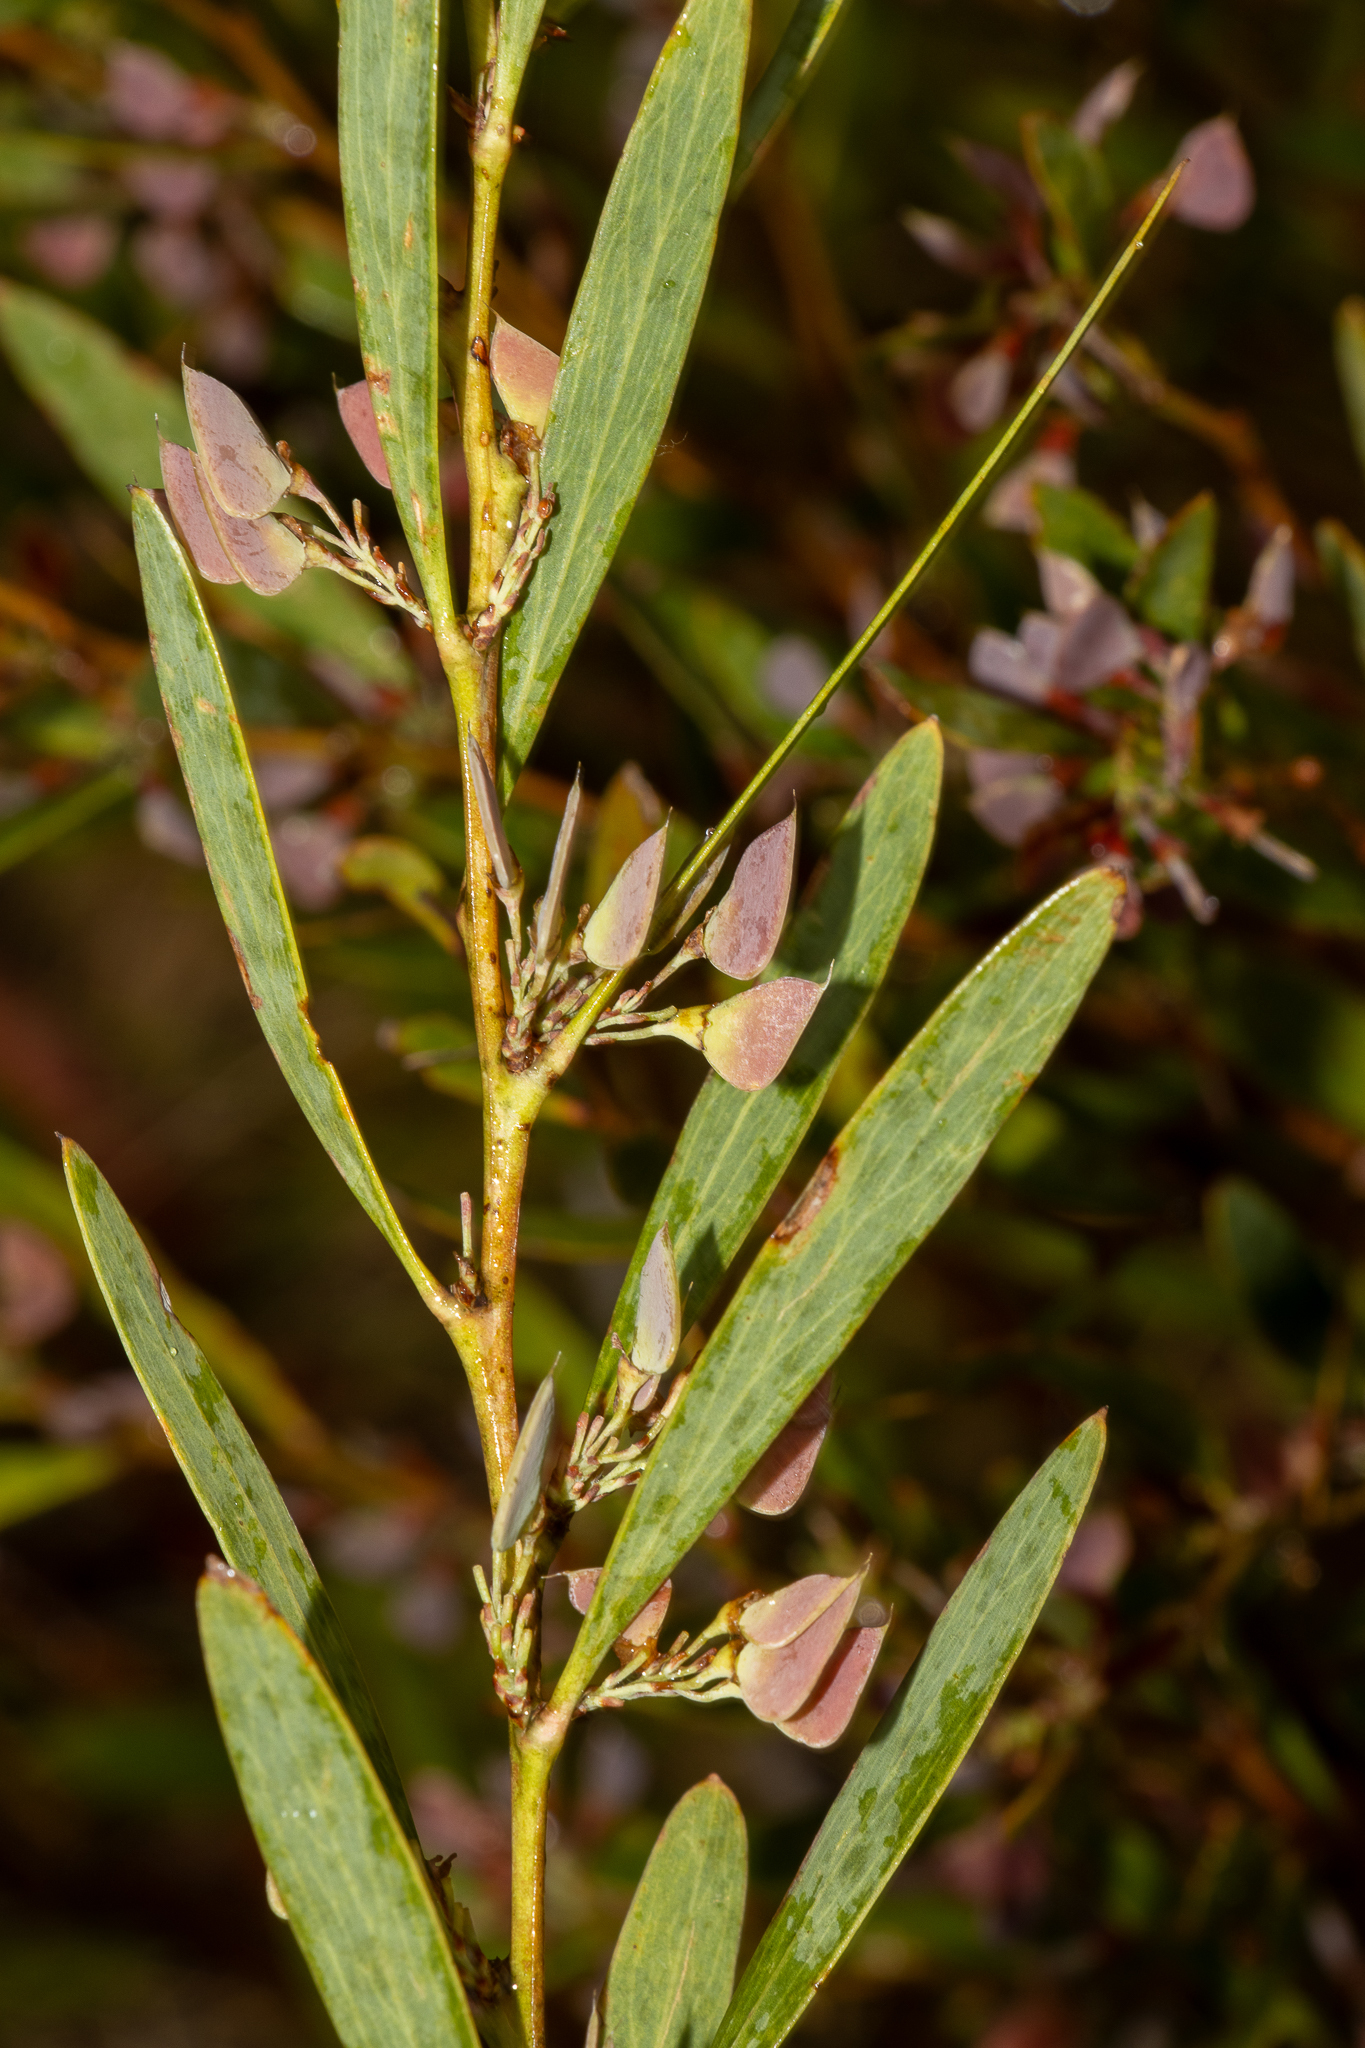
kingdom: Plantae
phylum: Tracheophyta
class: Magnoliopsida
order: Fabales
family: Fabaceae
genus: Daviesia
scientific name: Daviesia mimosoides
